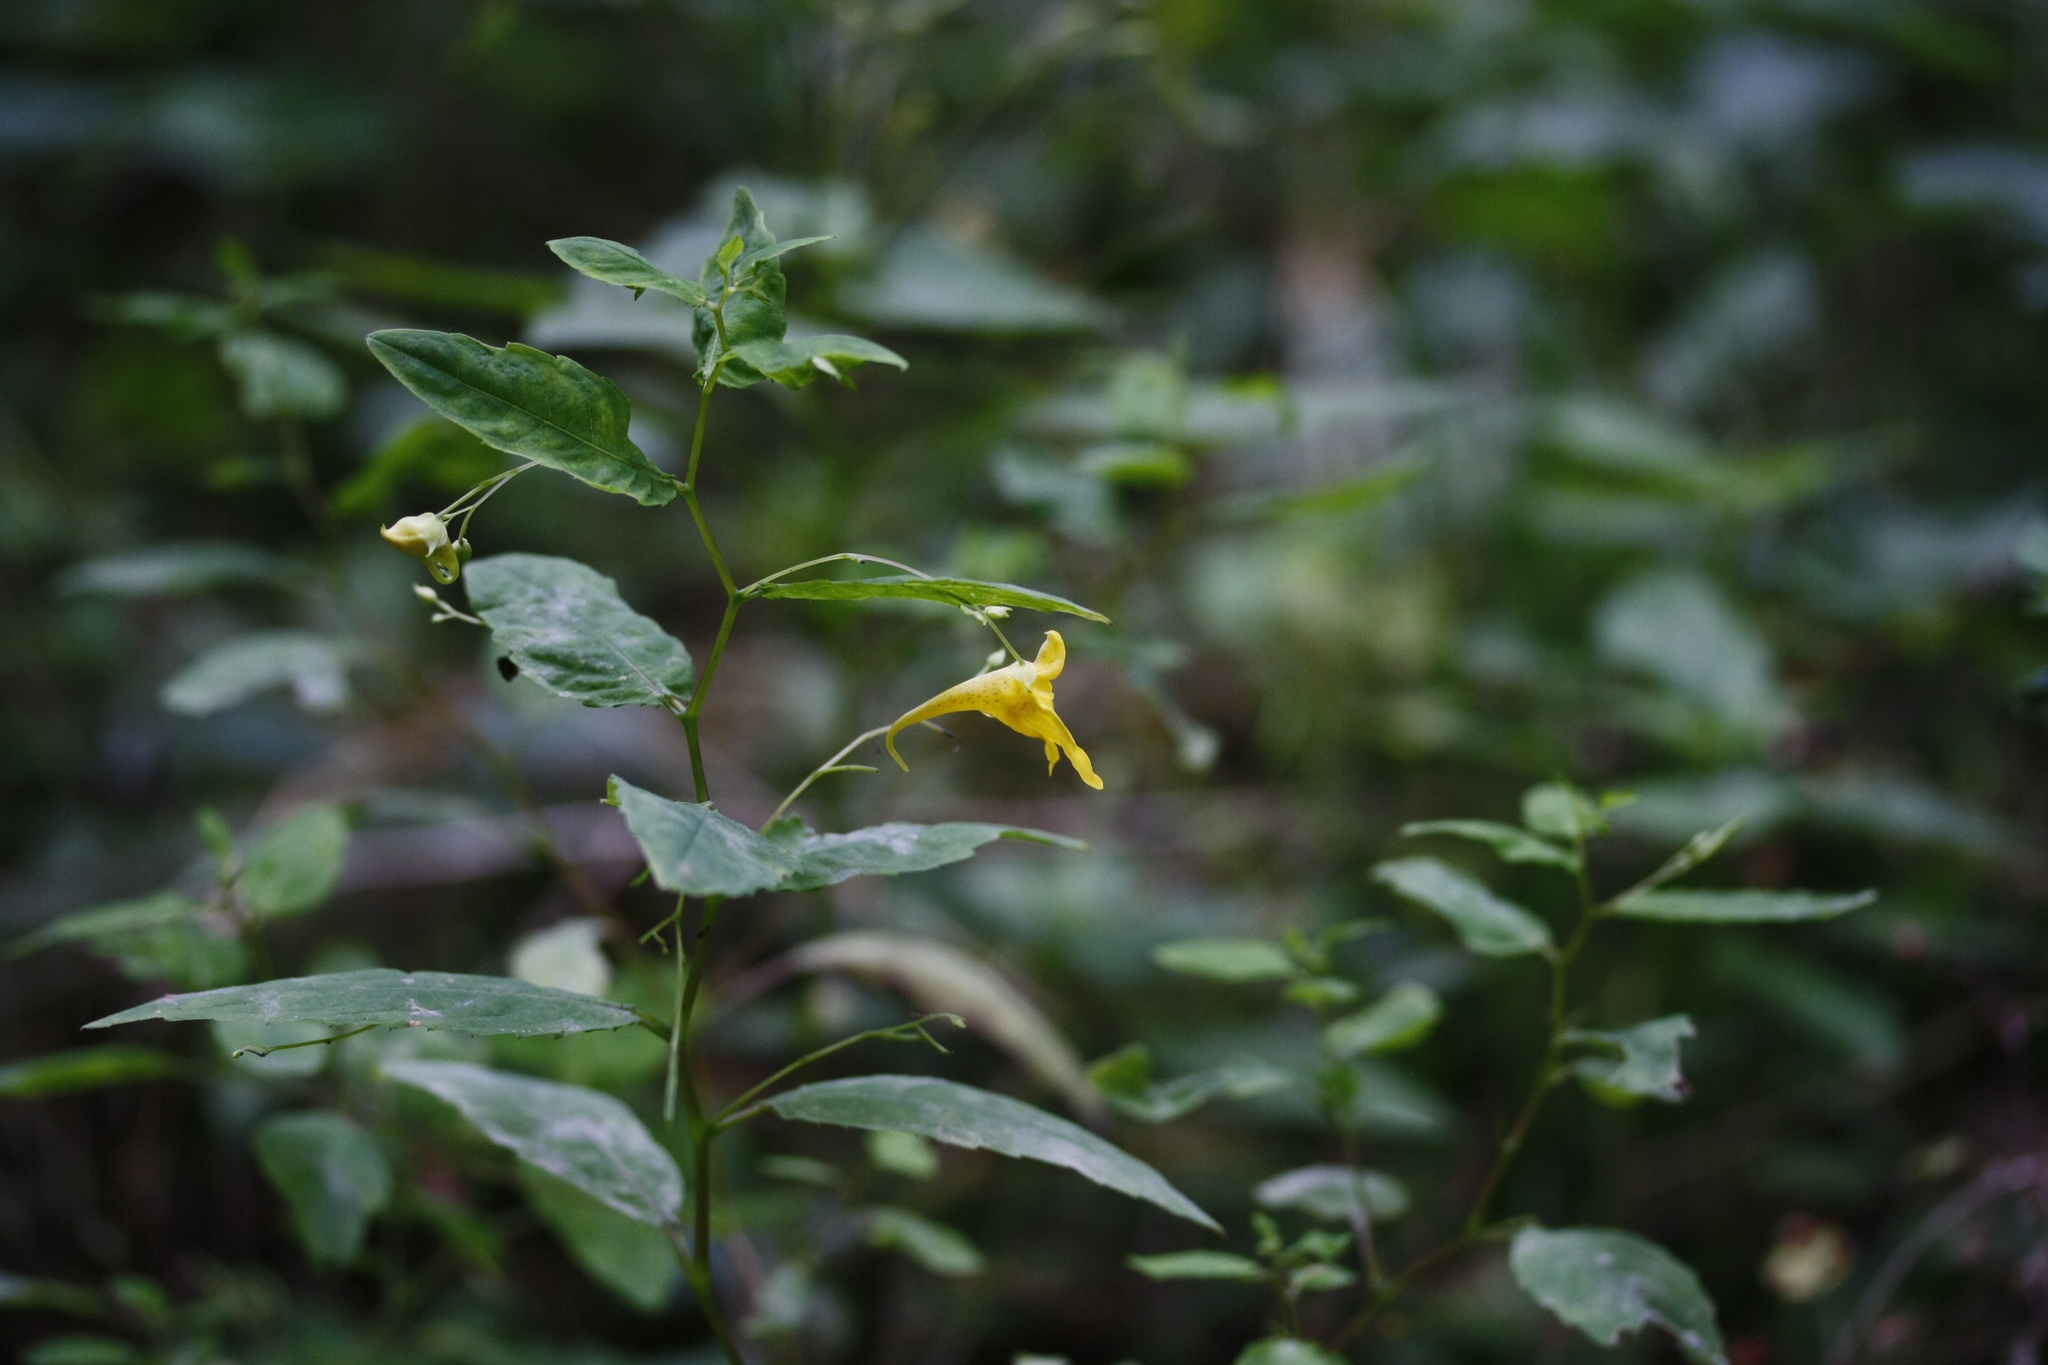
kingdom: Plantae
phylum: Tracheophyta
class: Magnoliopsida
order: Ericales
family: Balsaminaceae
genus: Impatiens
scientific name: Impatiens noli-tangere
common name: Touch-me-not balsam
